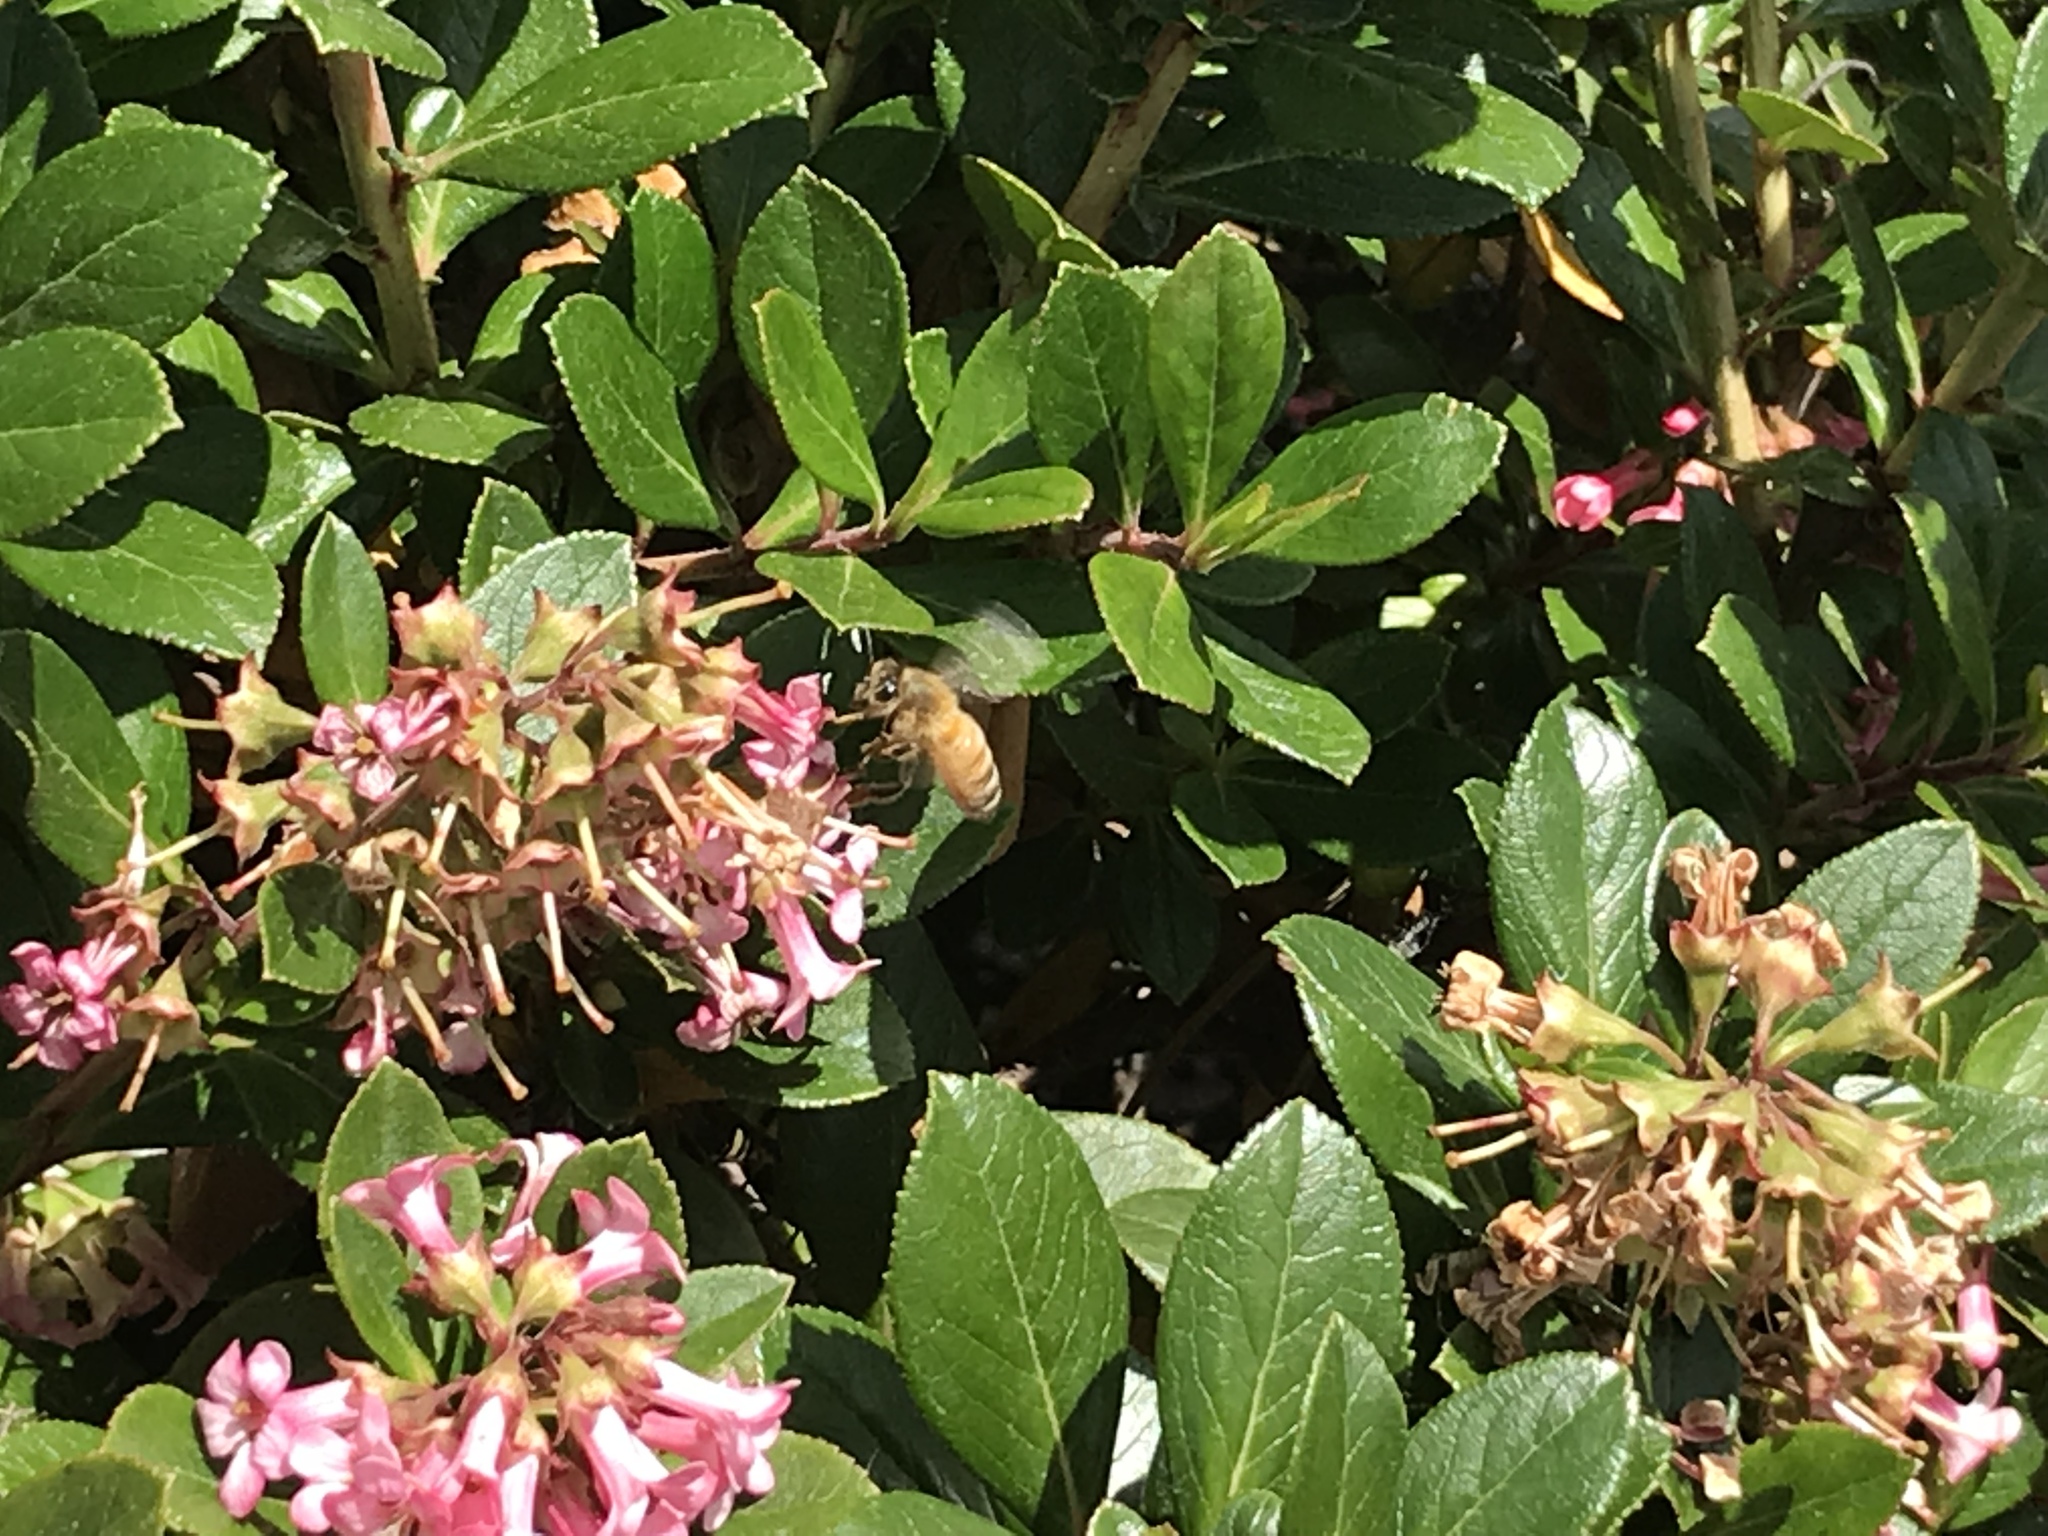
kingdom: Animalia
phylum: Arthropoda
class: Insecta
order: Hymenoptera
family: Apidae
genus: Apis
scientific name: Apis mellifera
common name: Honey bee
